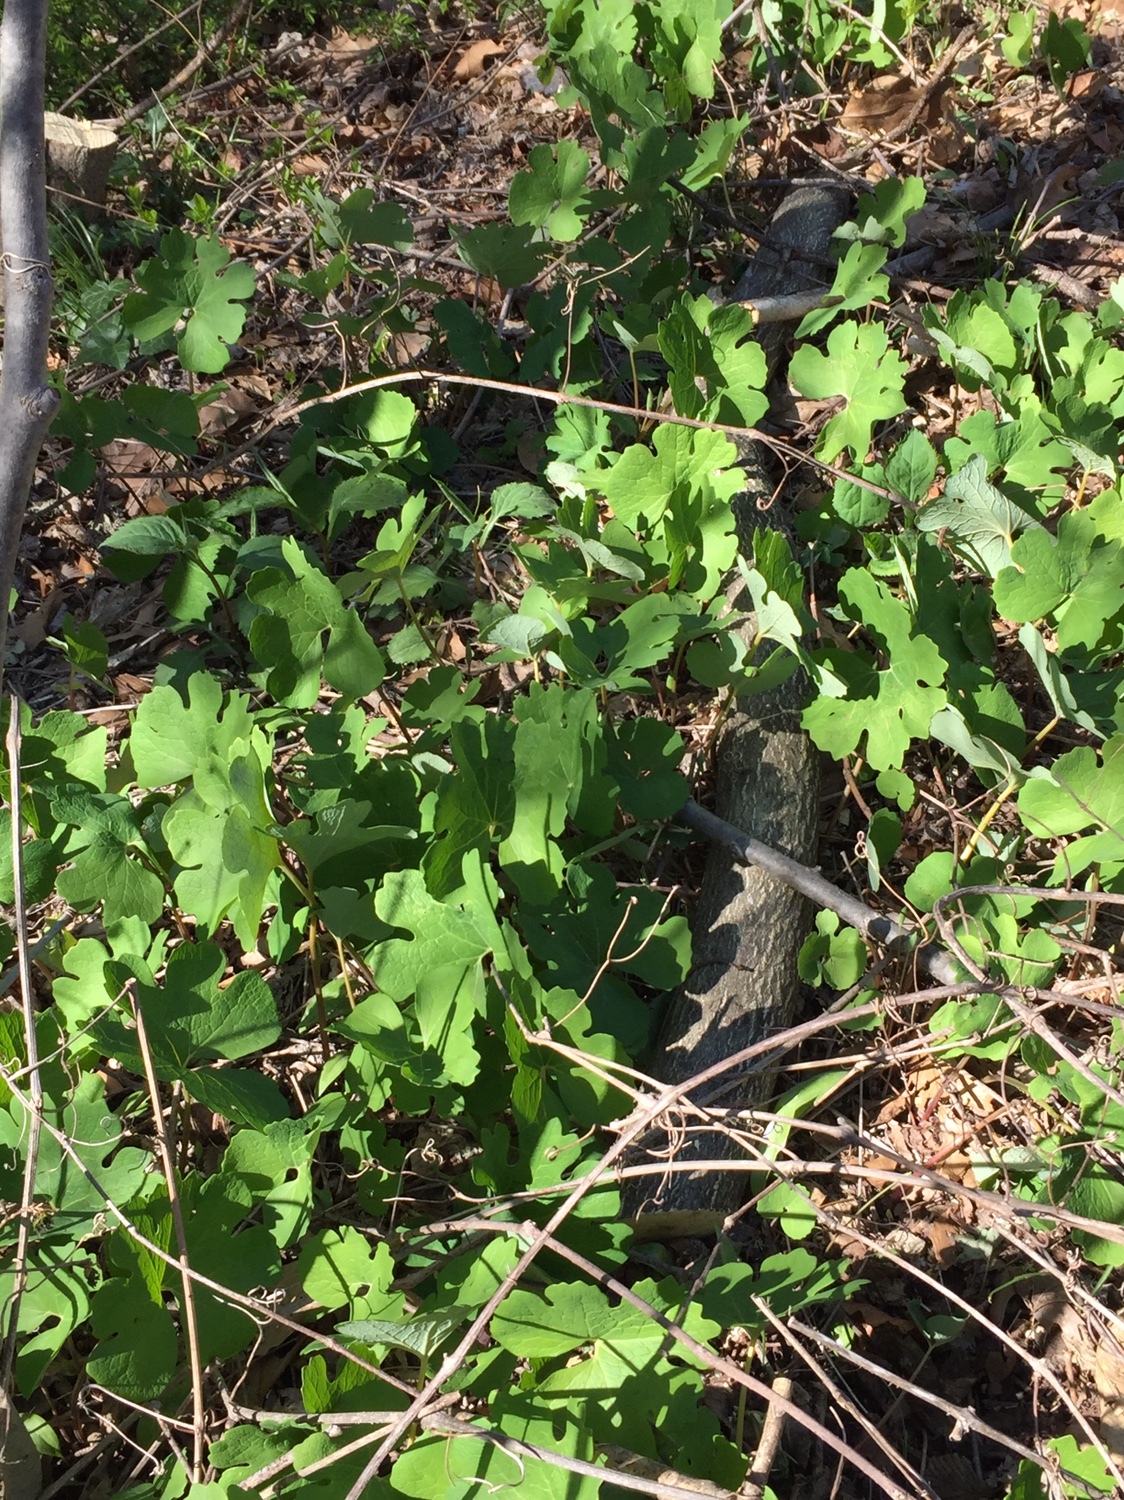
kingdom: Plantae
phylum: Tracheophyta
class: Magnoliopsida
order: Ranunculales
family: Papaveraceae
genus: Sanguinaria
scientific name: Sanguinaria canadensis
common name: Bloodroot
